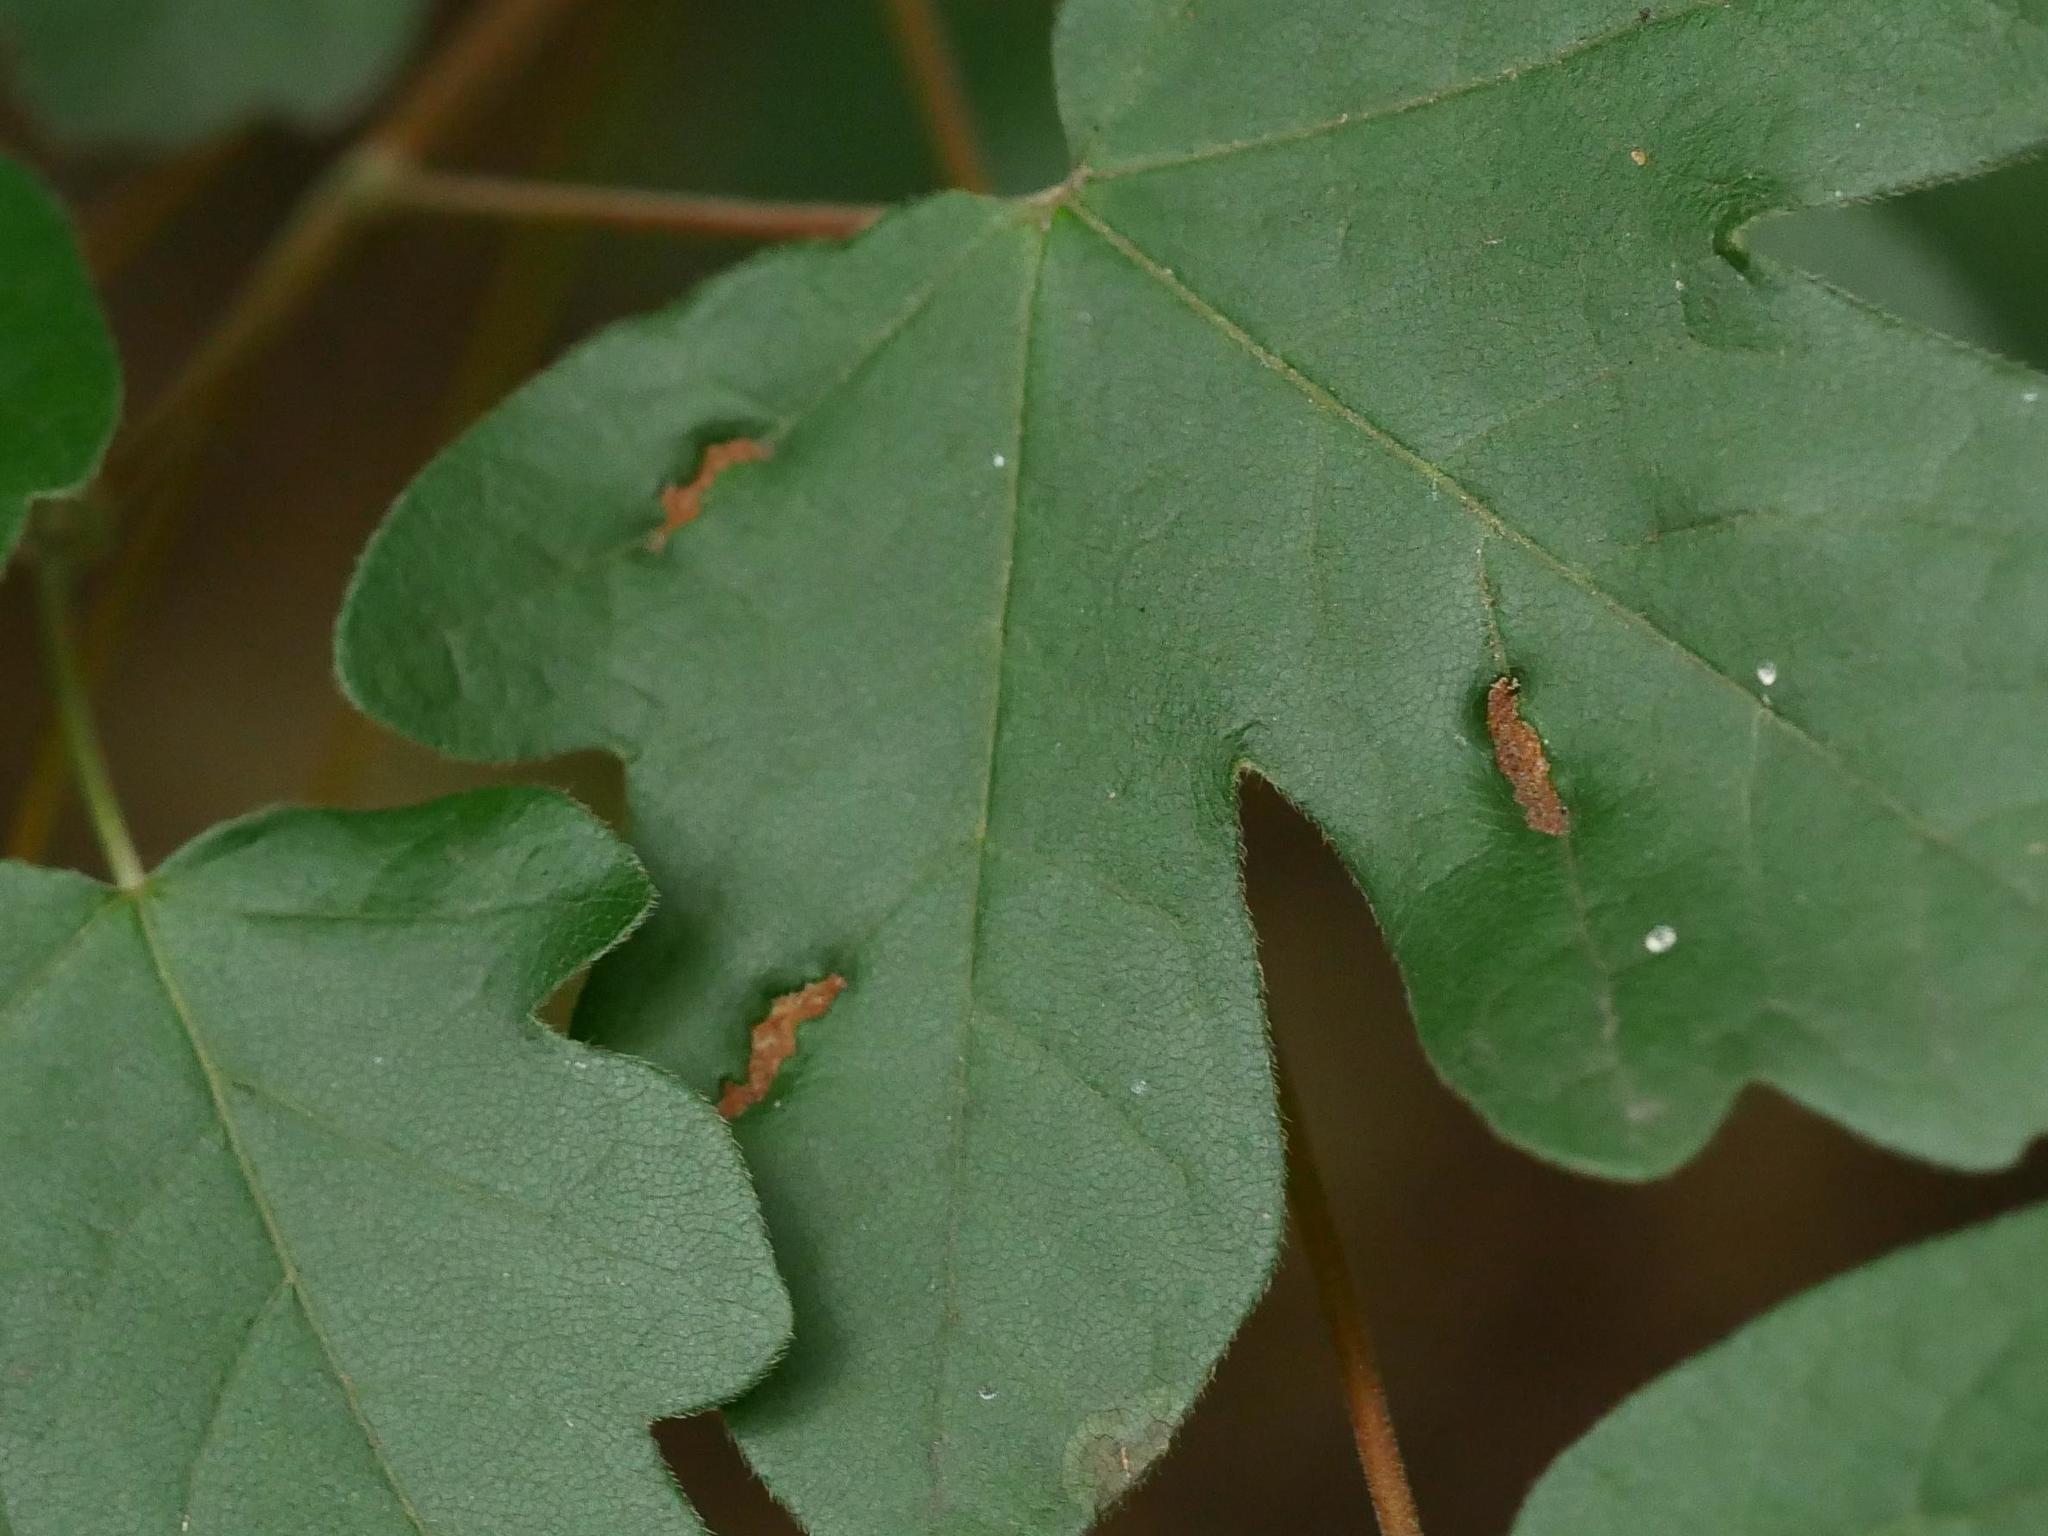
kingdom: Animalia
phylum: Arthropoda
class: Arachnida
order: Trombidiformes
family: Eriophyidae
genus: Aceria
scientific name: Aceria carinifex
